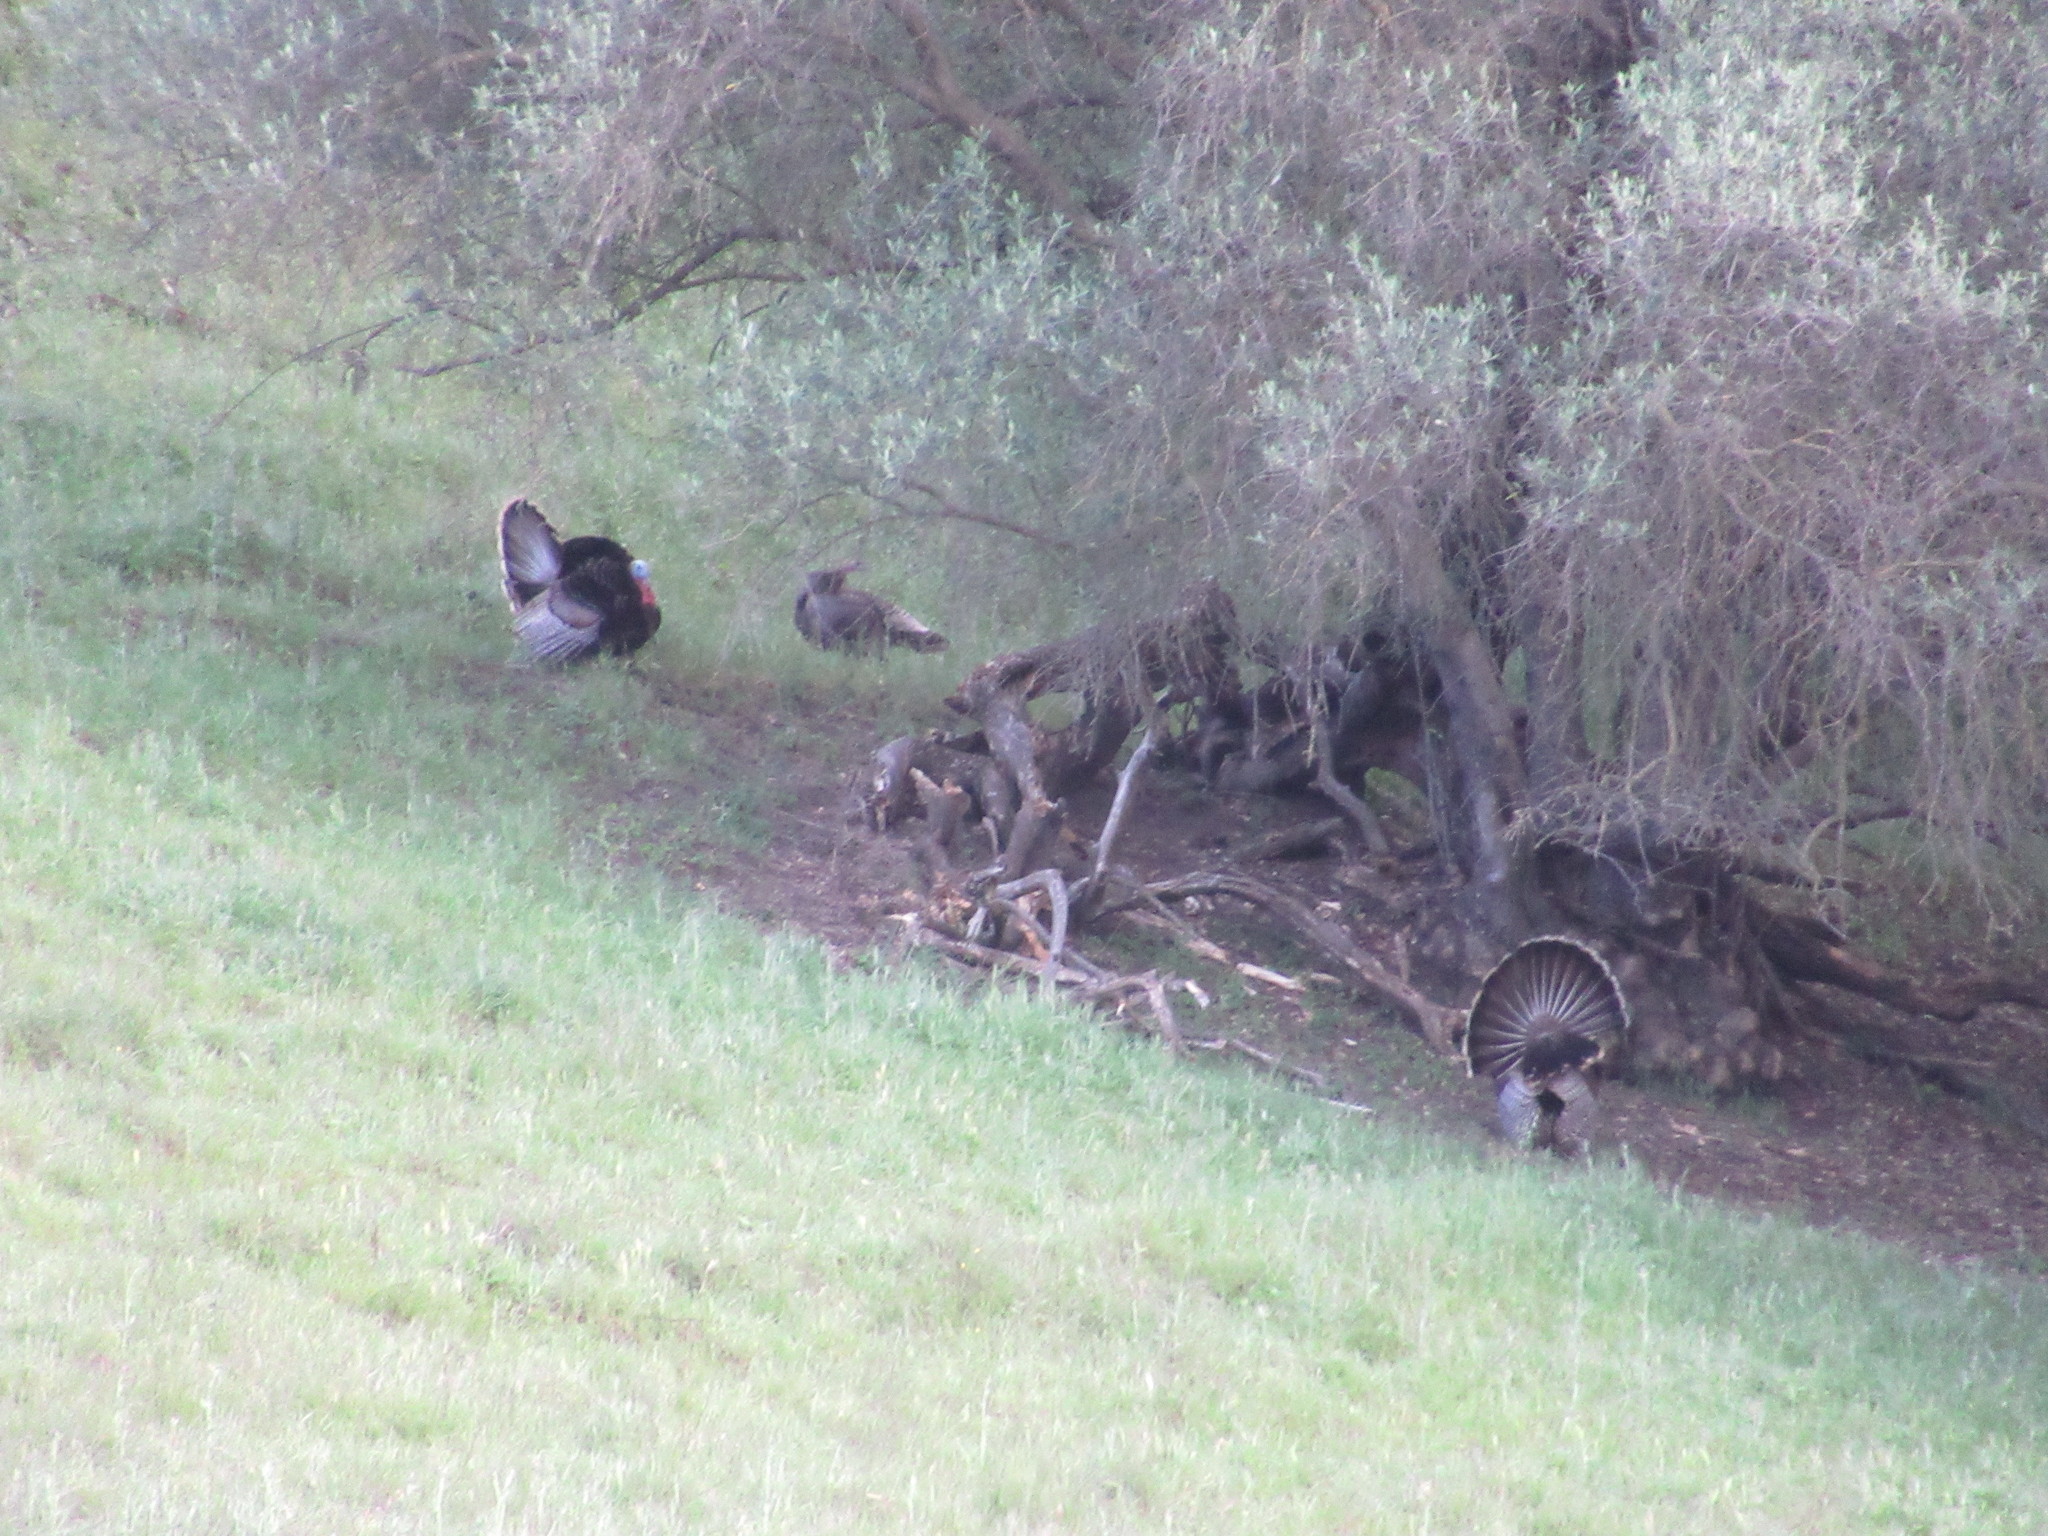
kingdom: Animalia
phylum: Chordata
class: Aves
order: Galliformes
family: Phasianidae
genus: Meleagris
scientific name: Meleagris gallopavo
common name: Wild turkey
